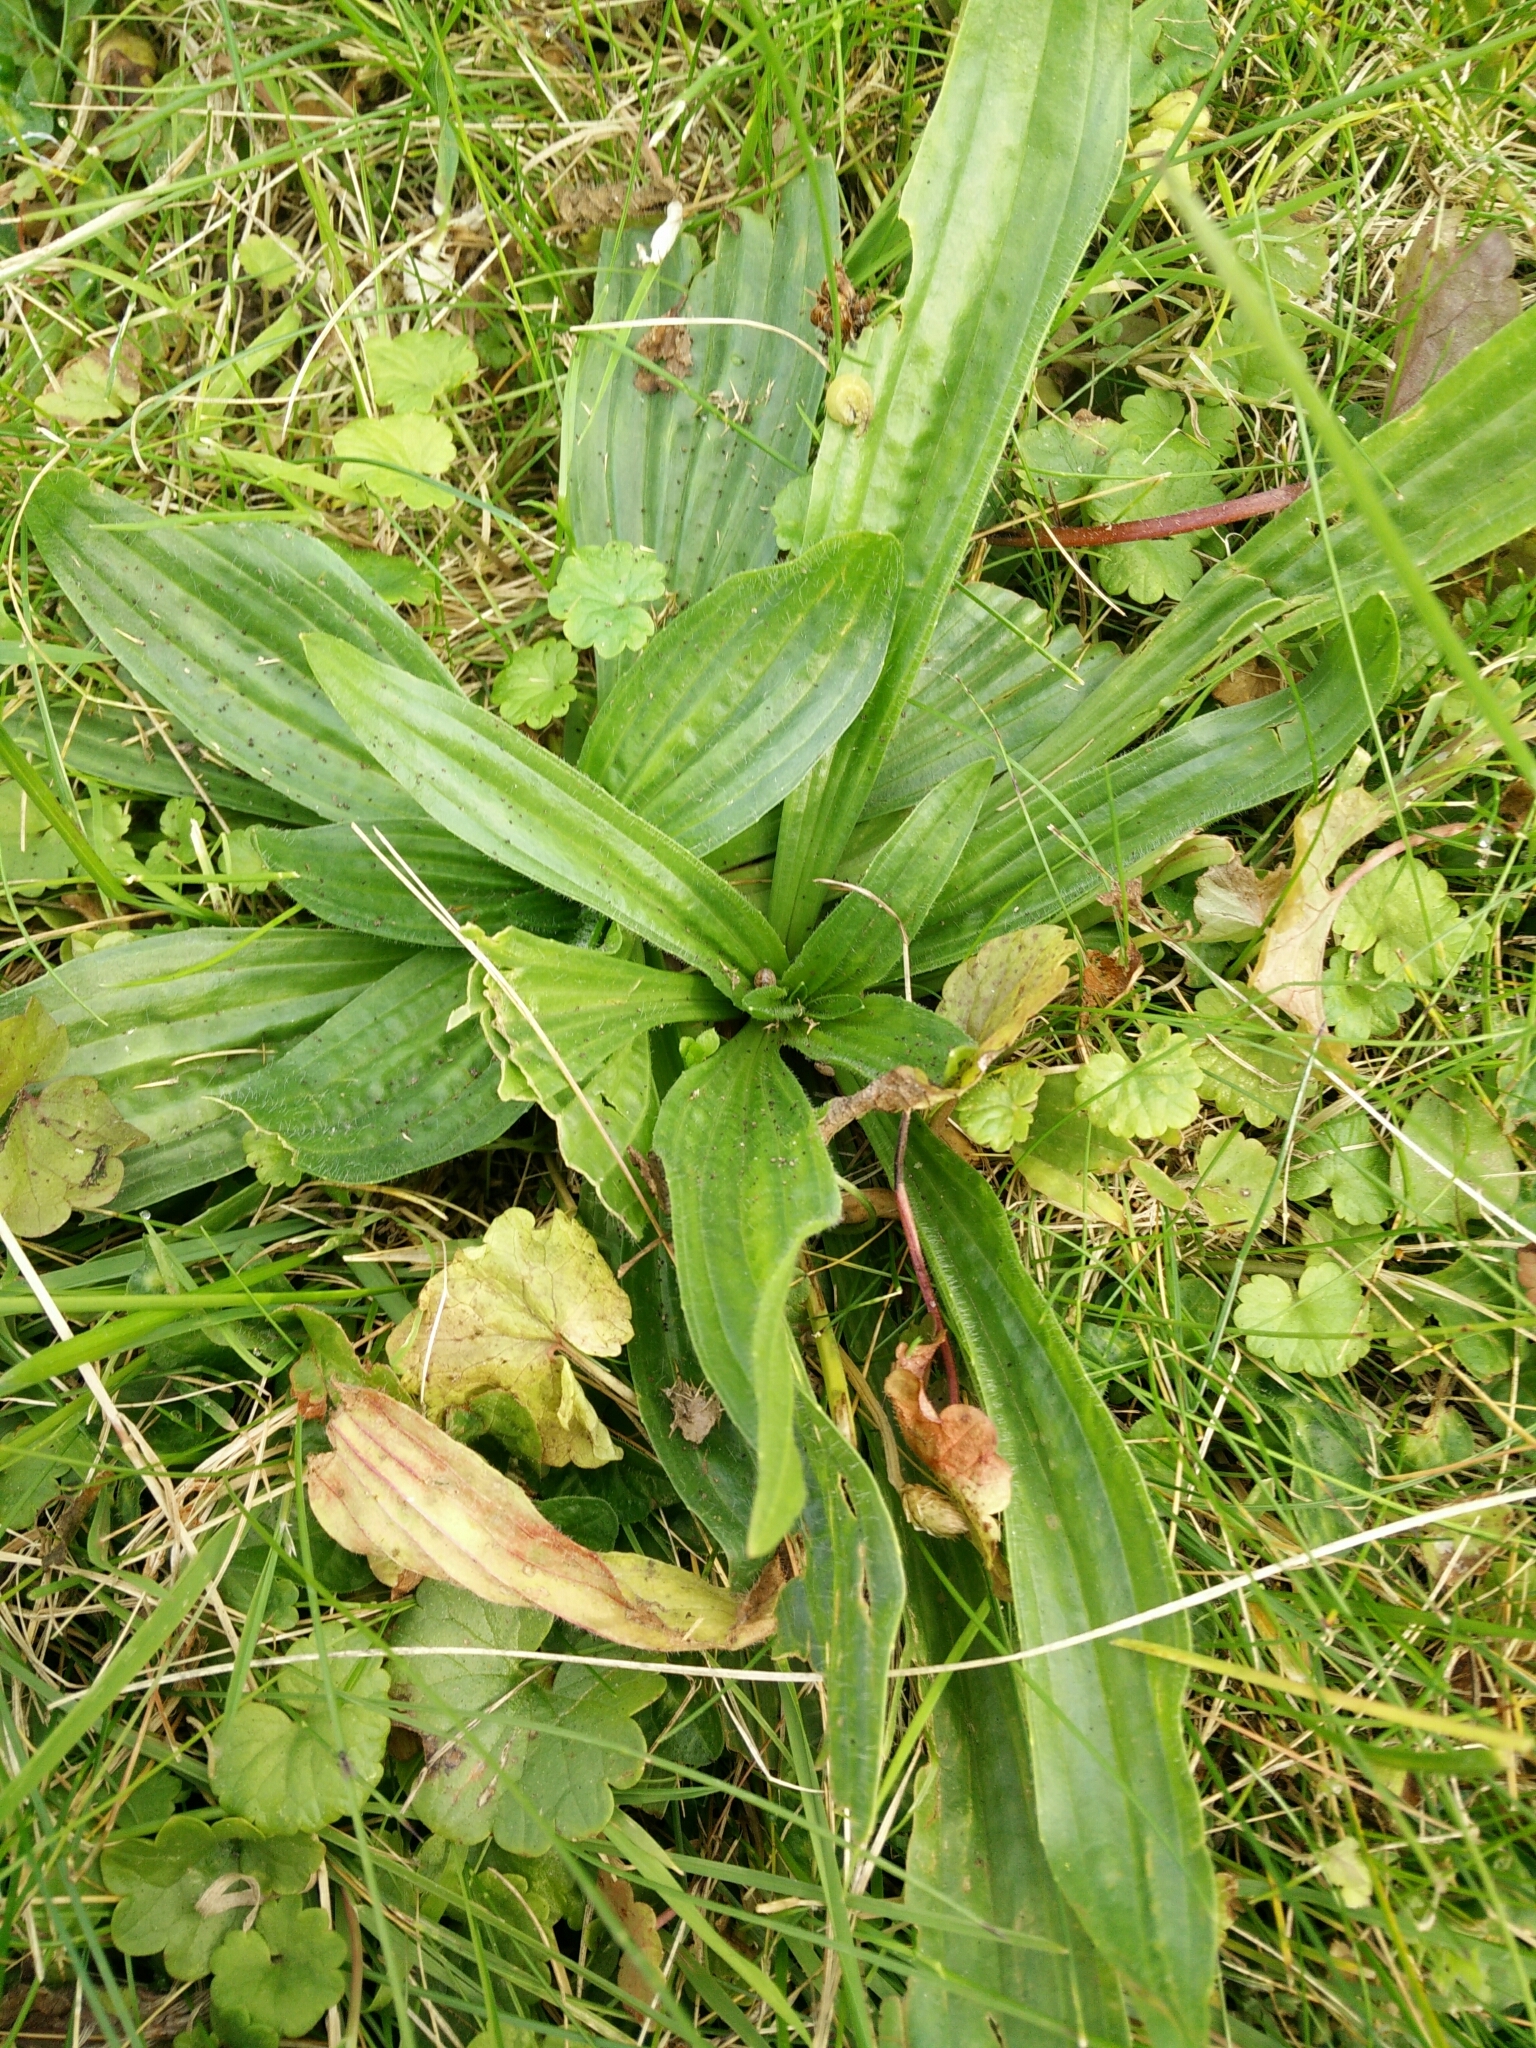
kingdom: Plantae
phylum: Tracheophyta
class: Magnoliopsida
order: Lamiales
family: Plantaginaceae
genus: Plantago
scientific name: Plantago lanceolata
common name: Ribwort plantain
